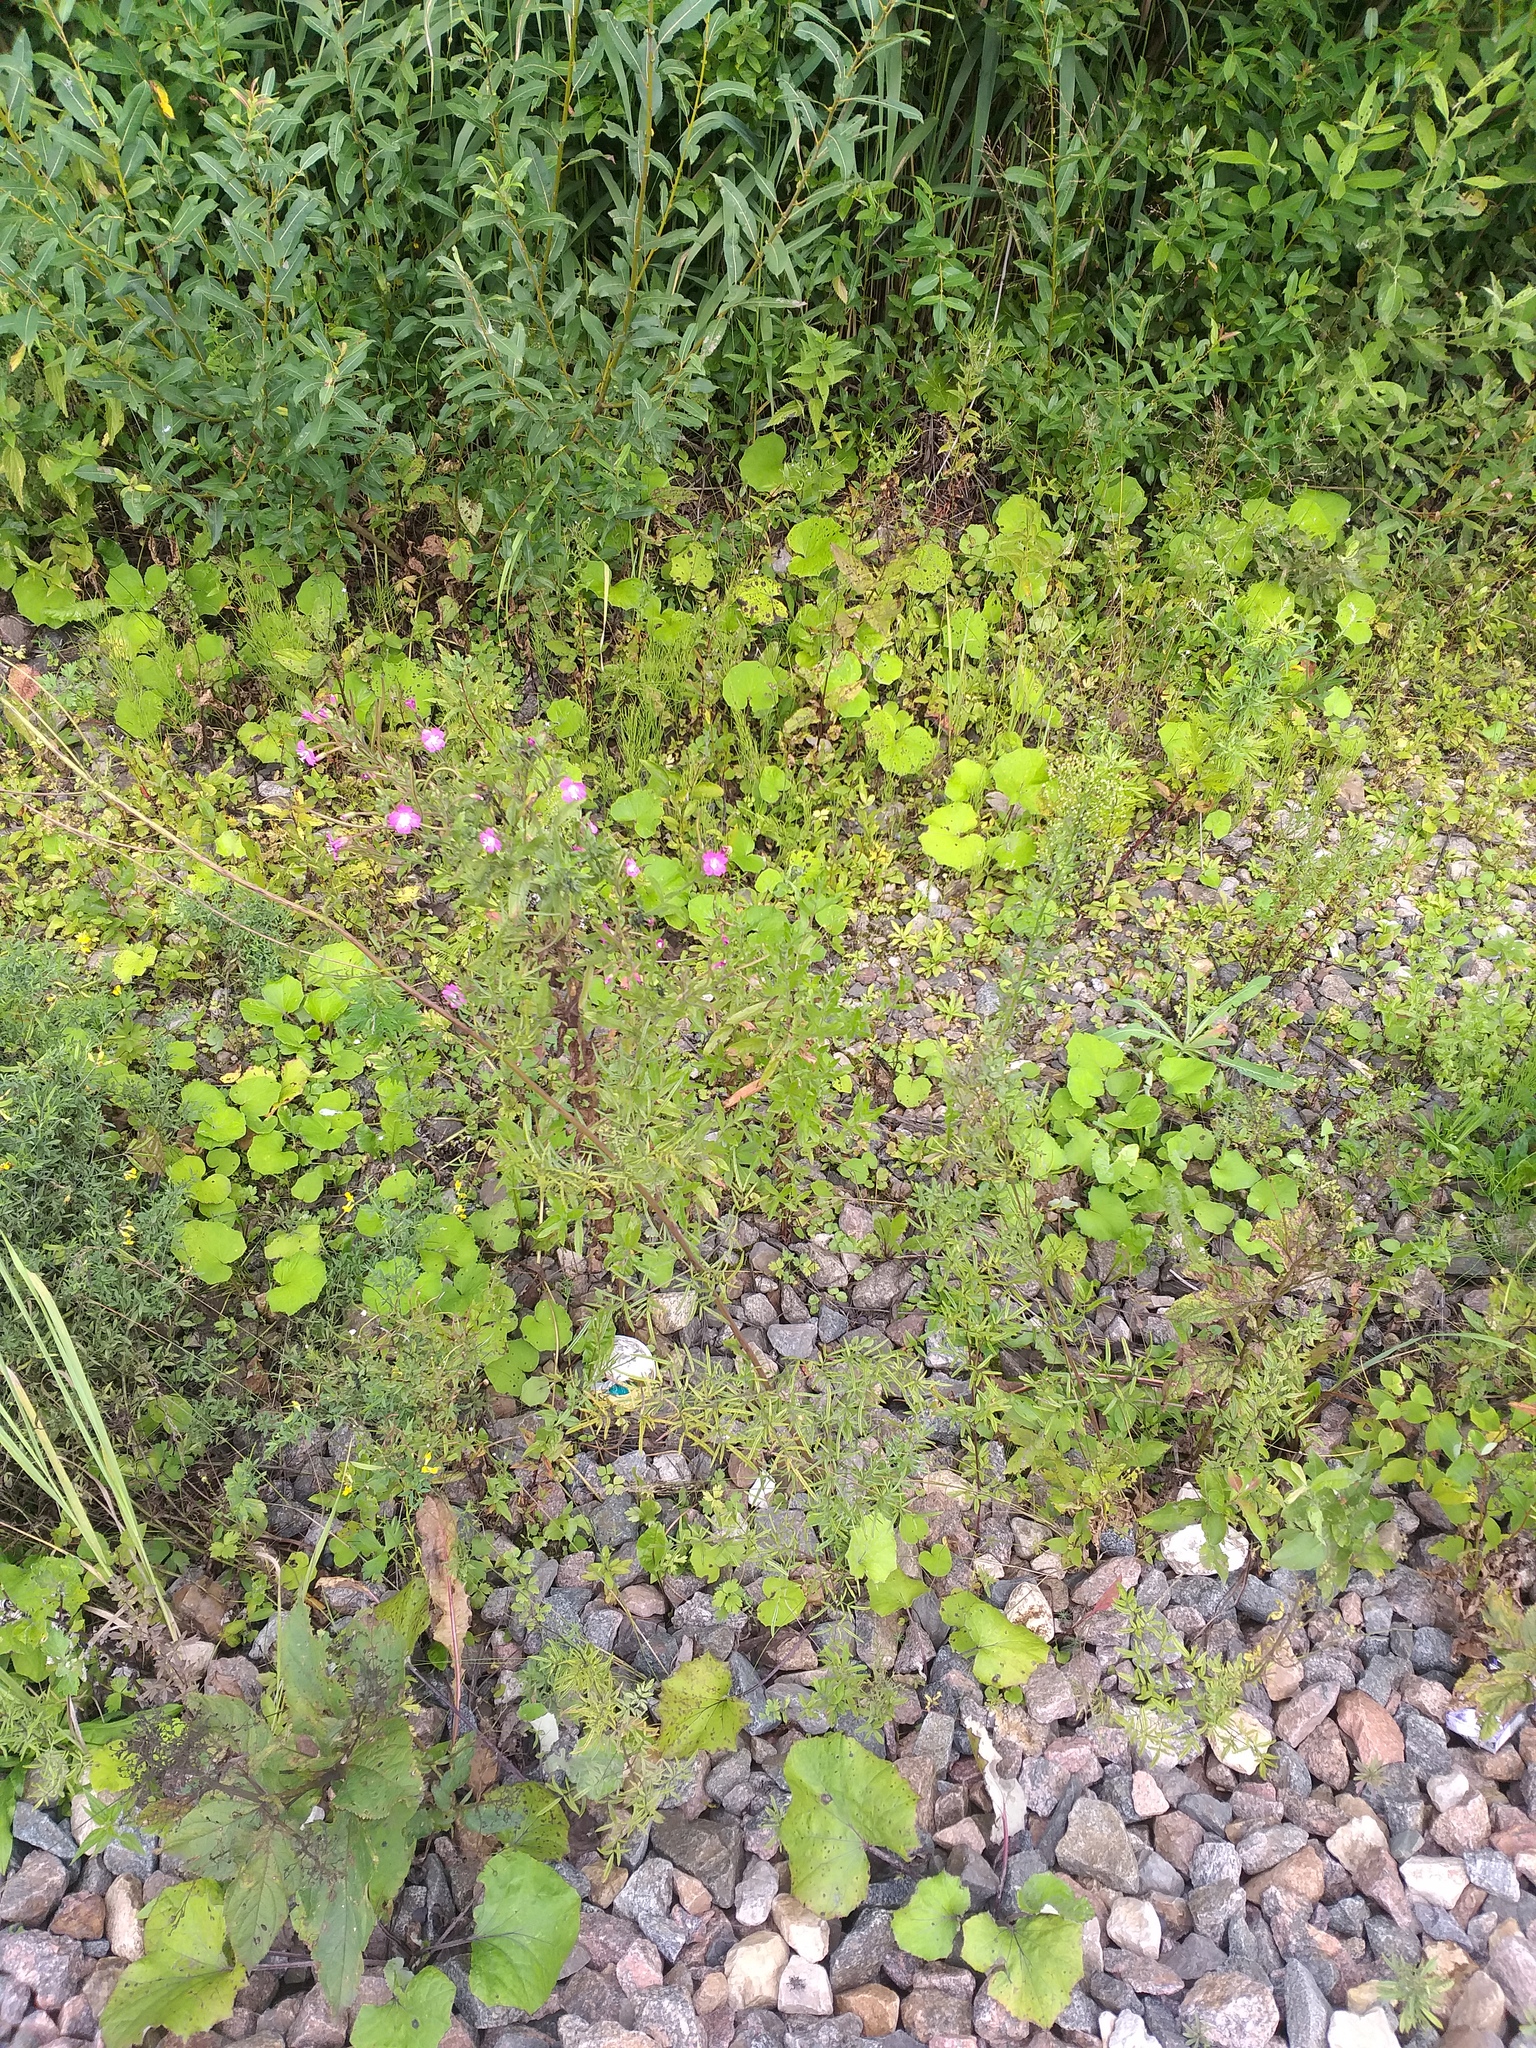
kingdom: Plantae
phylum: Tracheophyta
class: Magnoliopsida
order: Ranunculales
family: Ranunculaceae
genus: Thalictrum
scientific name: Thalictrum lucidum
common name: Shining meadow-rue
